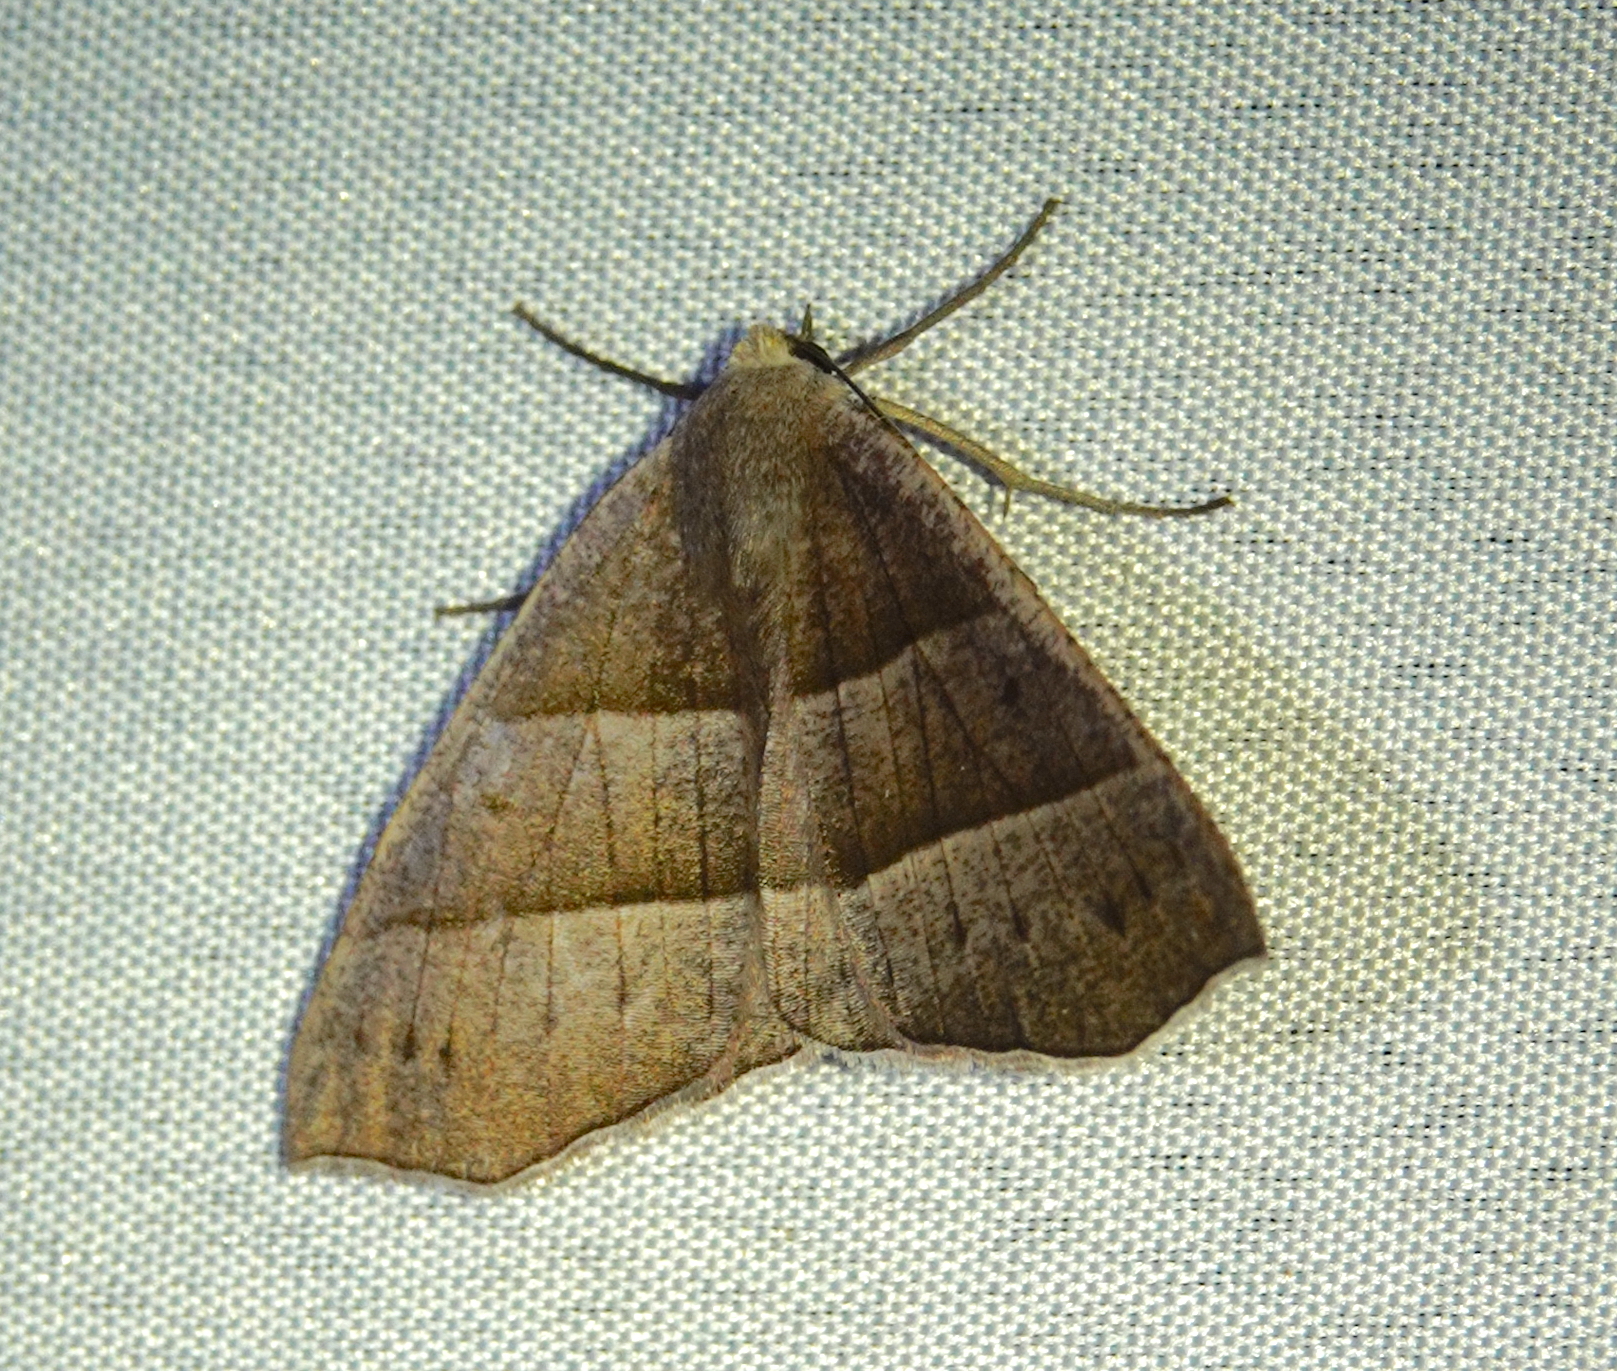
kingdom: Animalia
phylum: Arthropoda
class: Insecta
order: Lepidoptera
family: Geometridae
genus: Cosmophyga
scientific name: Cosmophyga privataria
